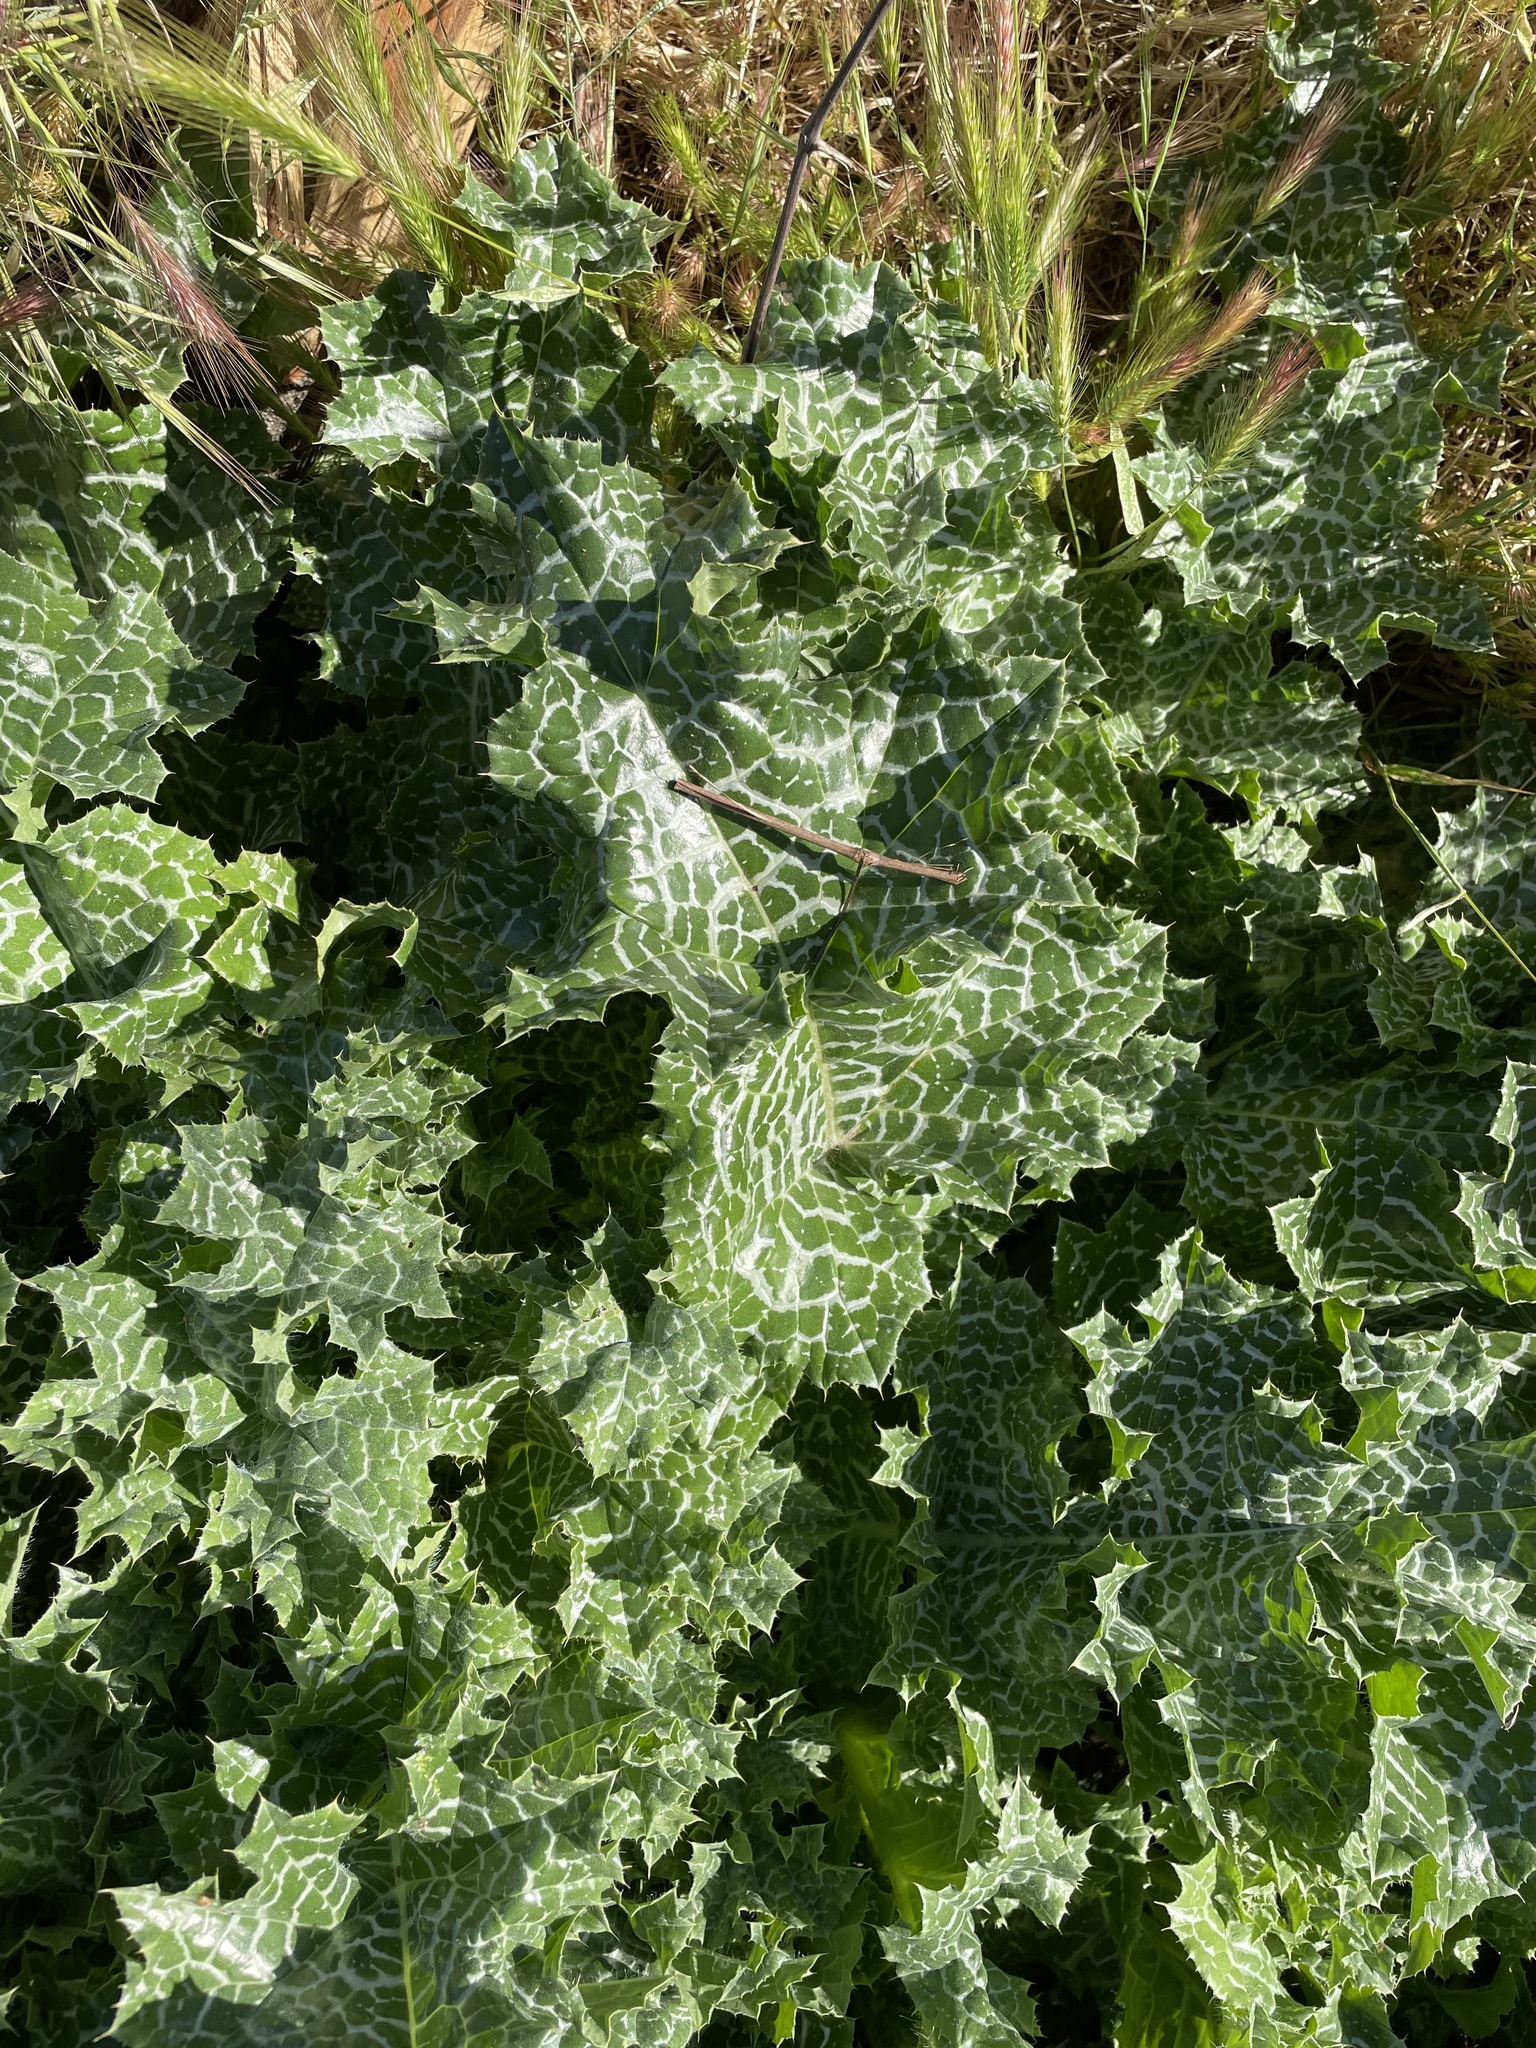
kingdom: Plantae
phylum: Tracheophyta
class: Magnoliopsida
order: Asterales
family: Asteraceae
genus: Silybum
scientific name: Silybum marianum
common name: Milk thistle
